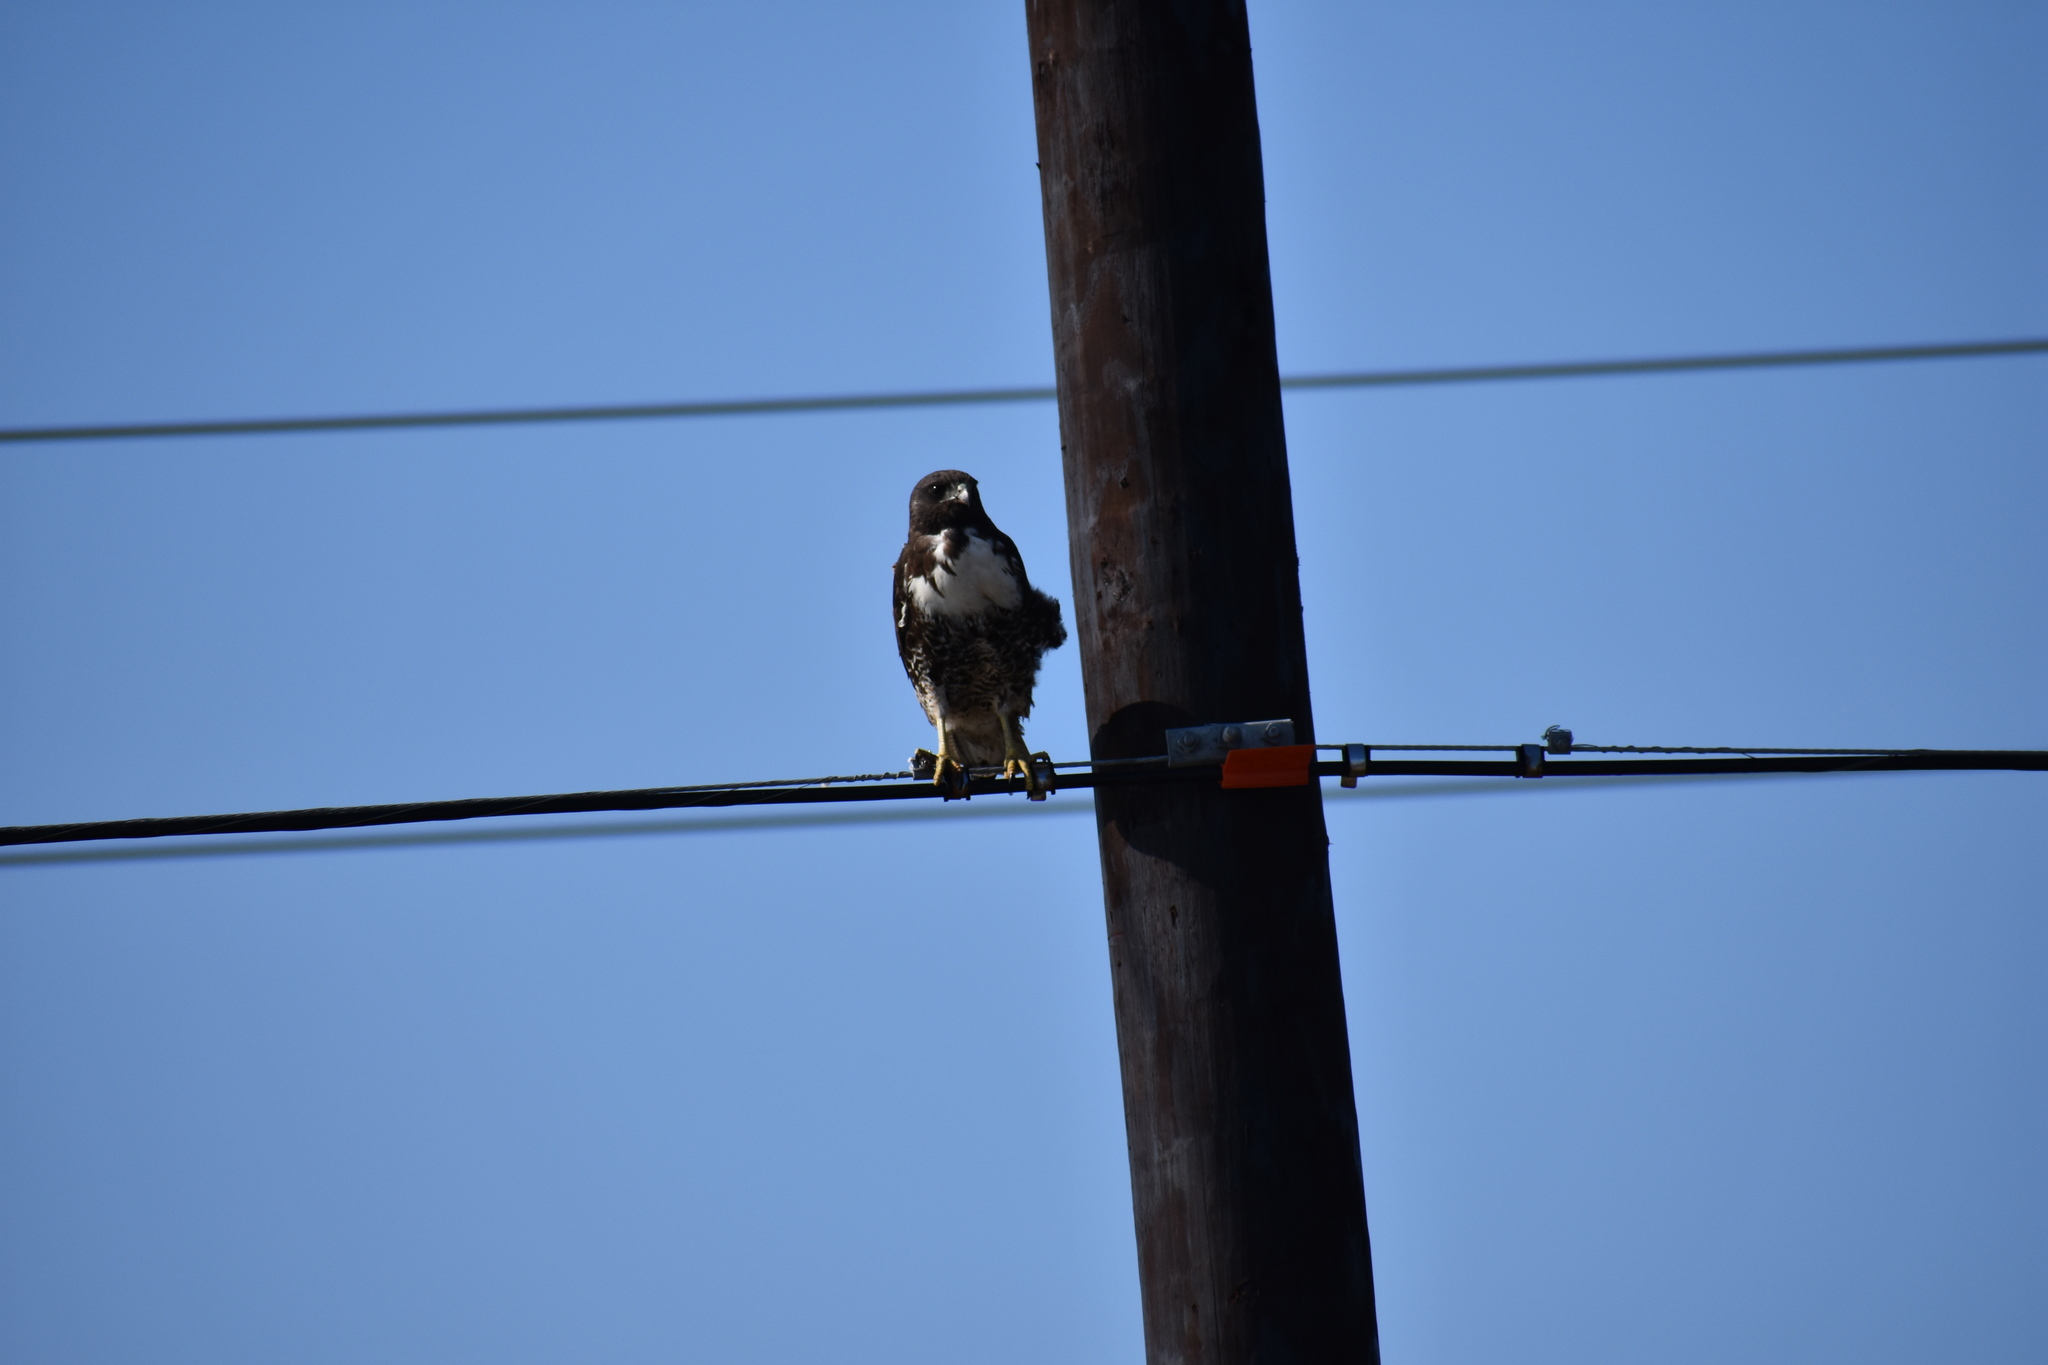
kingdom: Animalia
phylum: Chordata
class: Aves
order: Accipitriformes
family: Accipitridae
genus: Buteo
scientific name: Buteo albicaudatus
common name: White-tailed hawk
